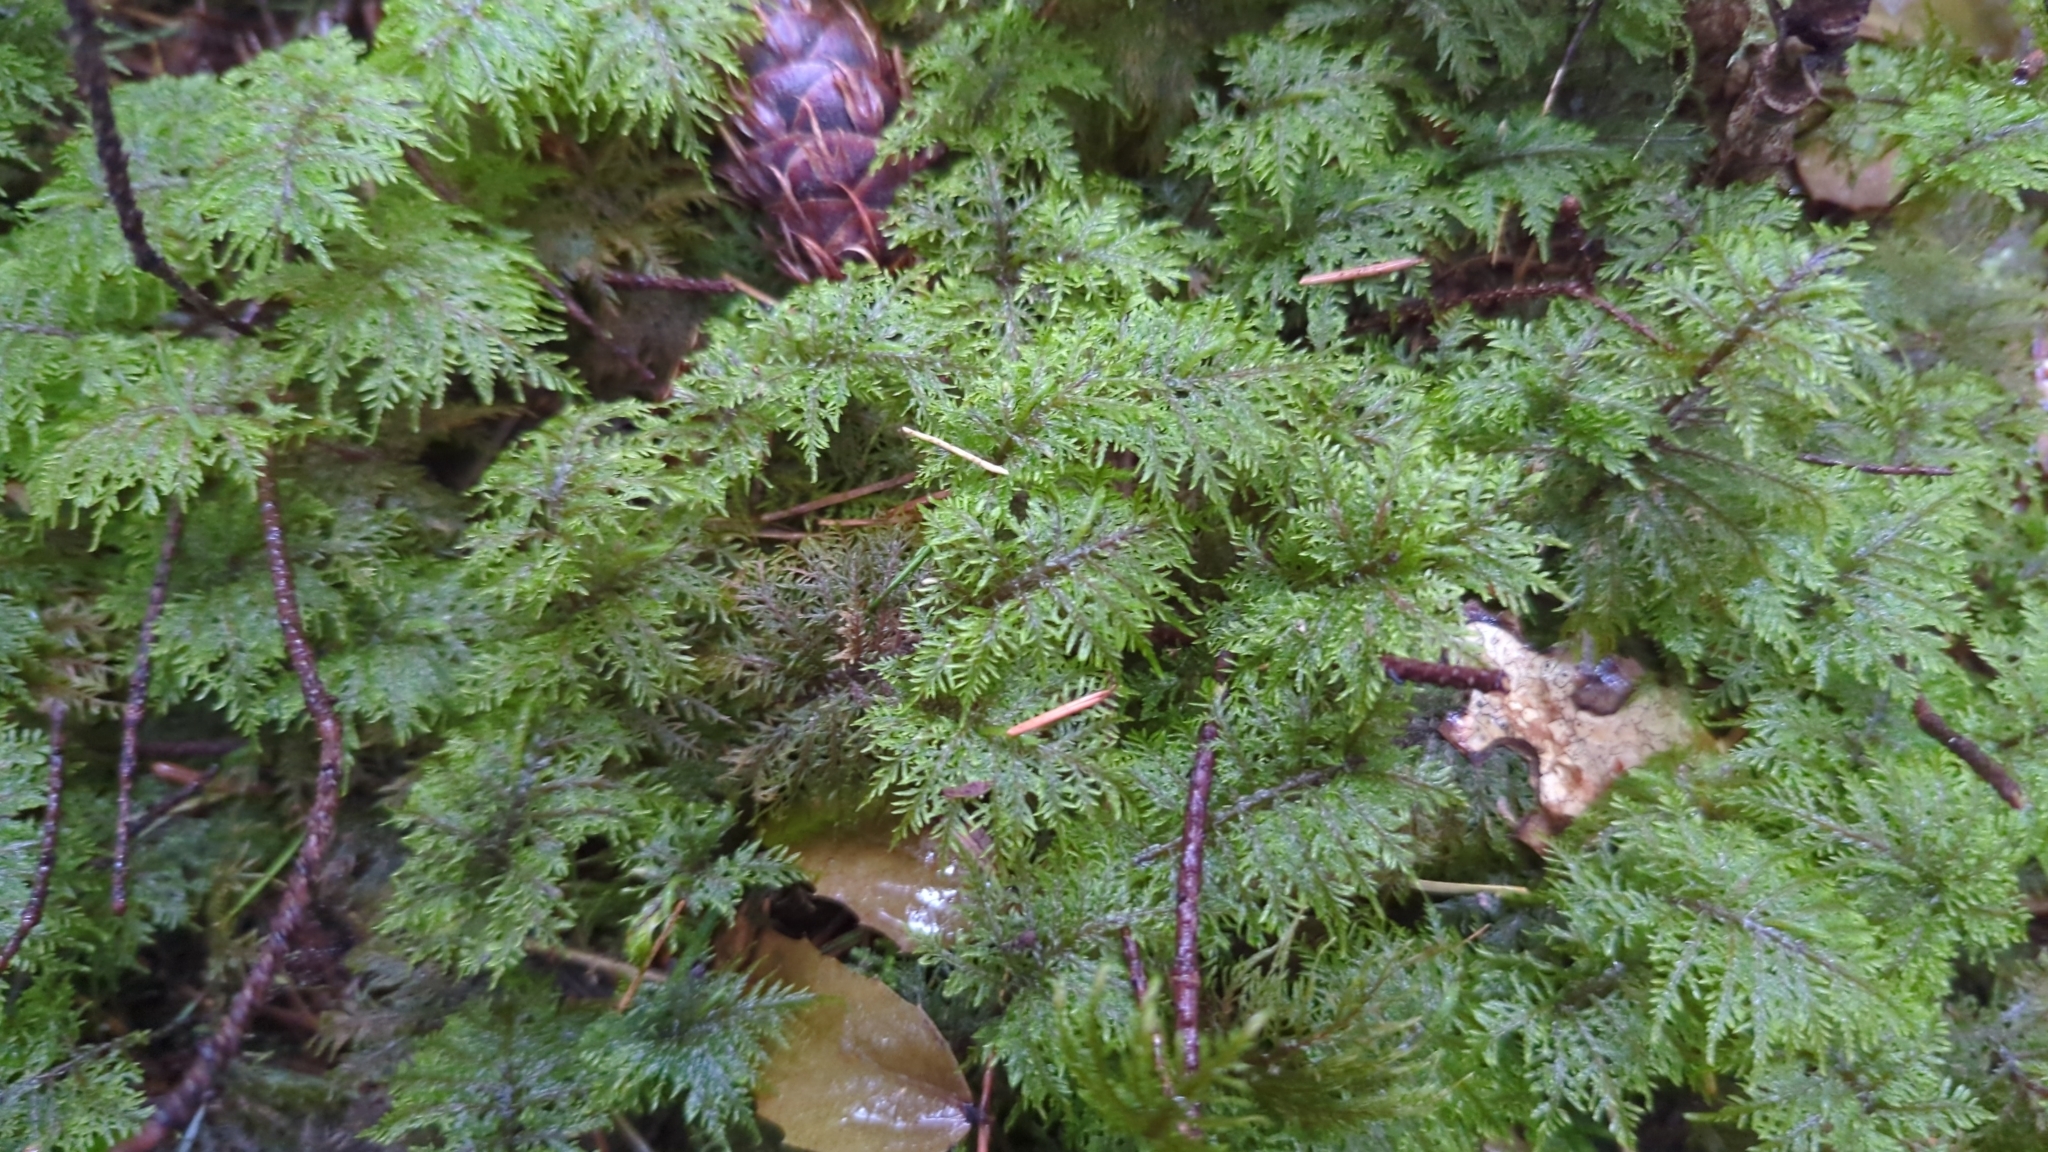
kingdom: Plantae
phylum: Bryophyta
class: Bryopsida
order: Hypnales
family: Hylocomiaceae
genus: Hylocomium
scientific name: Hylocomium splendens
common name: Stairstep moss
